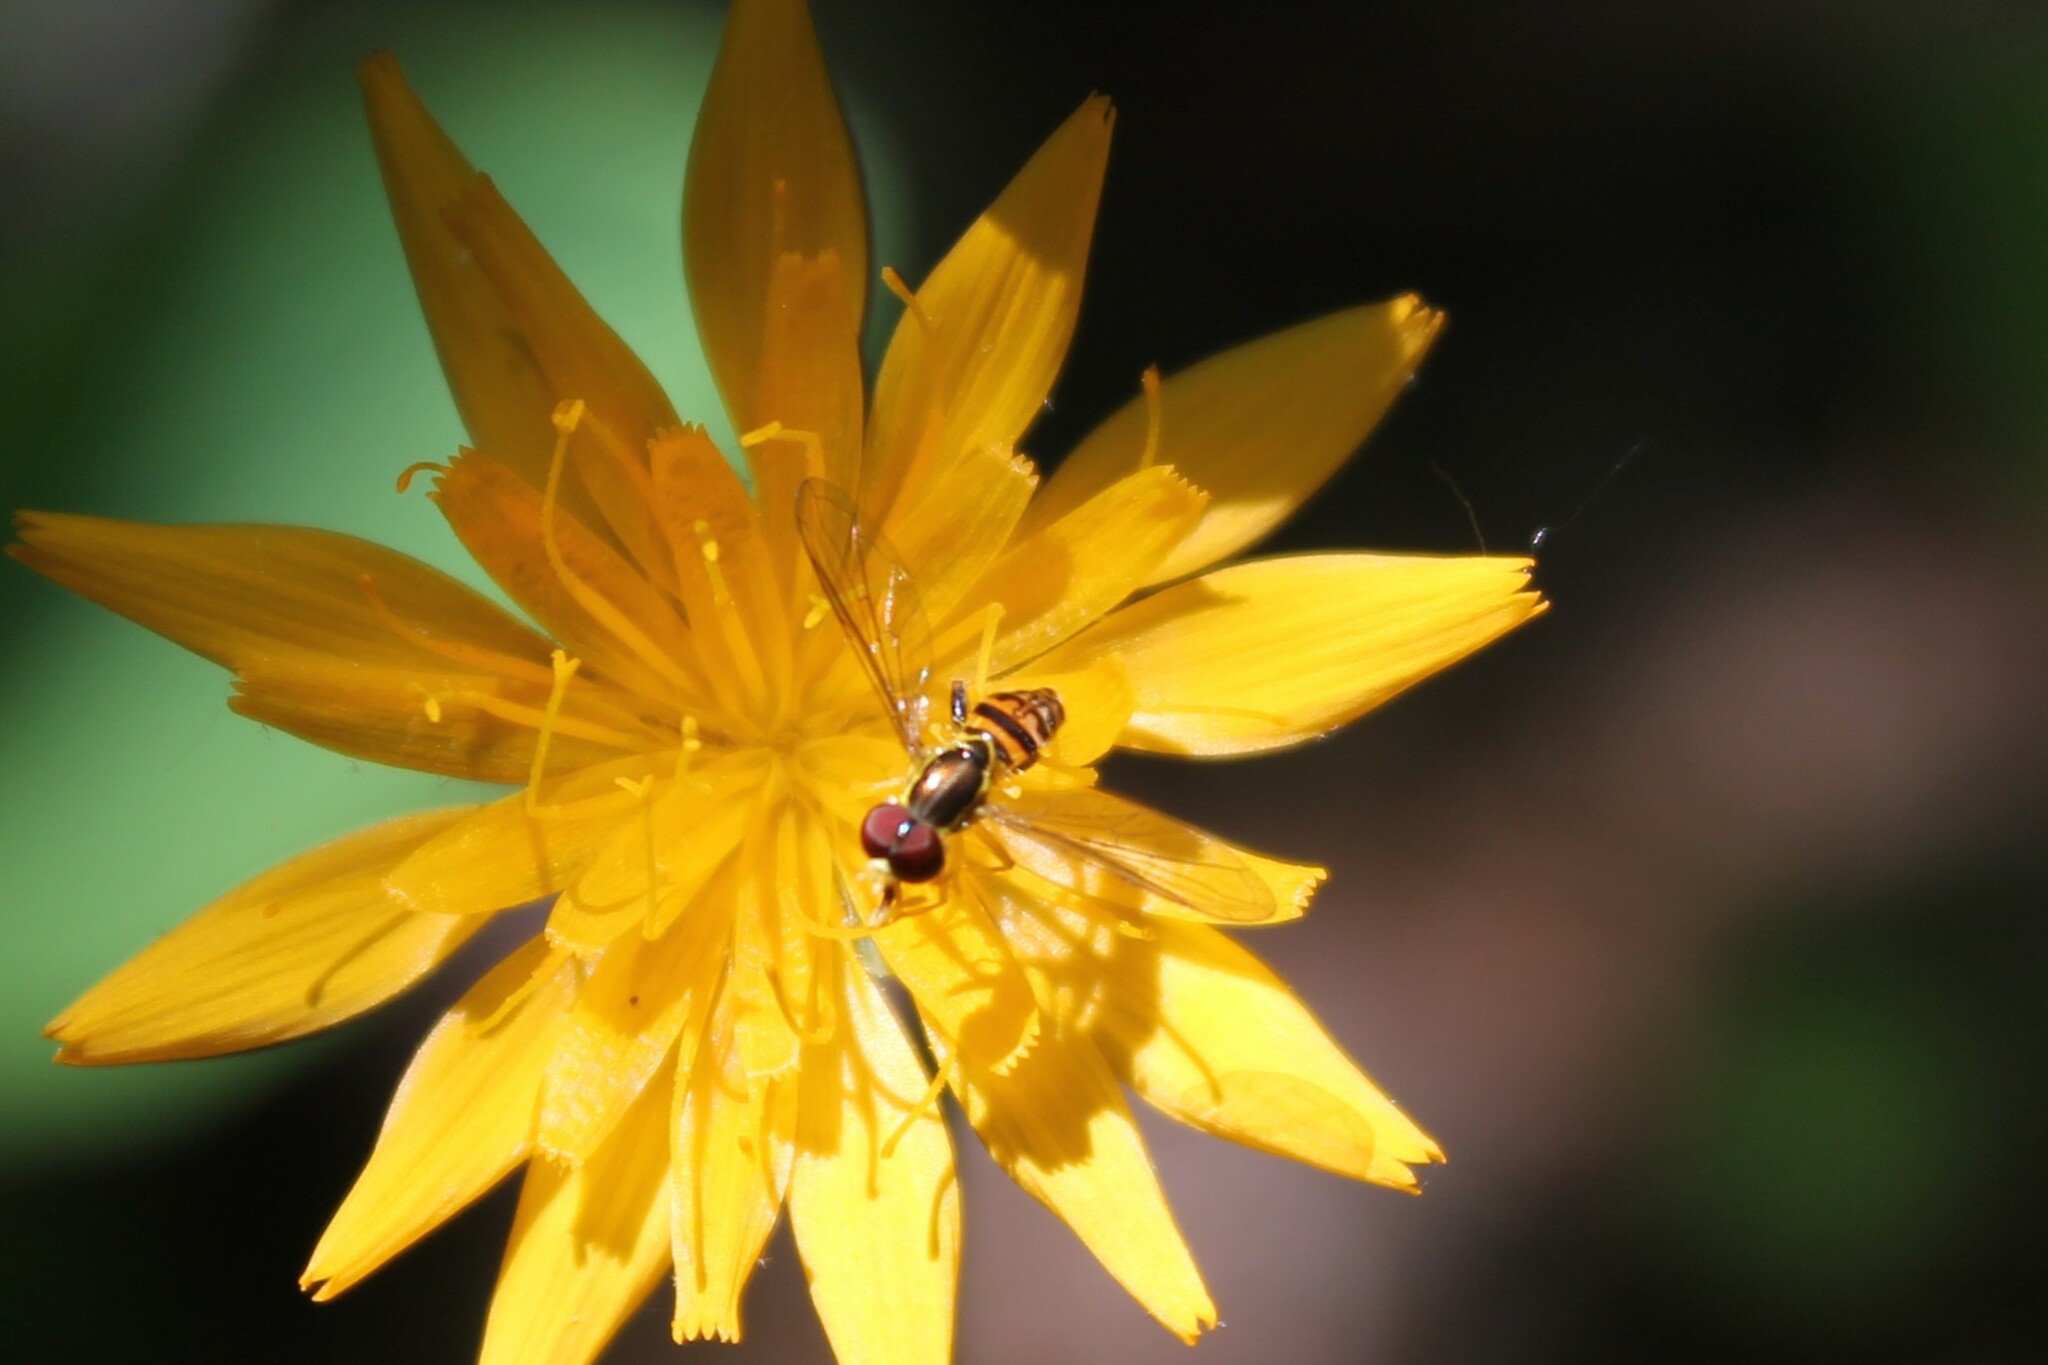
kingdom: Animalia
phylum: Arthropoda
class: Insecta
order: Diptera
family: Syrphidae
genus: Toxomerus
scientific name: Toxomerus geminatus
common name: Eastern calligrapher
